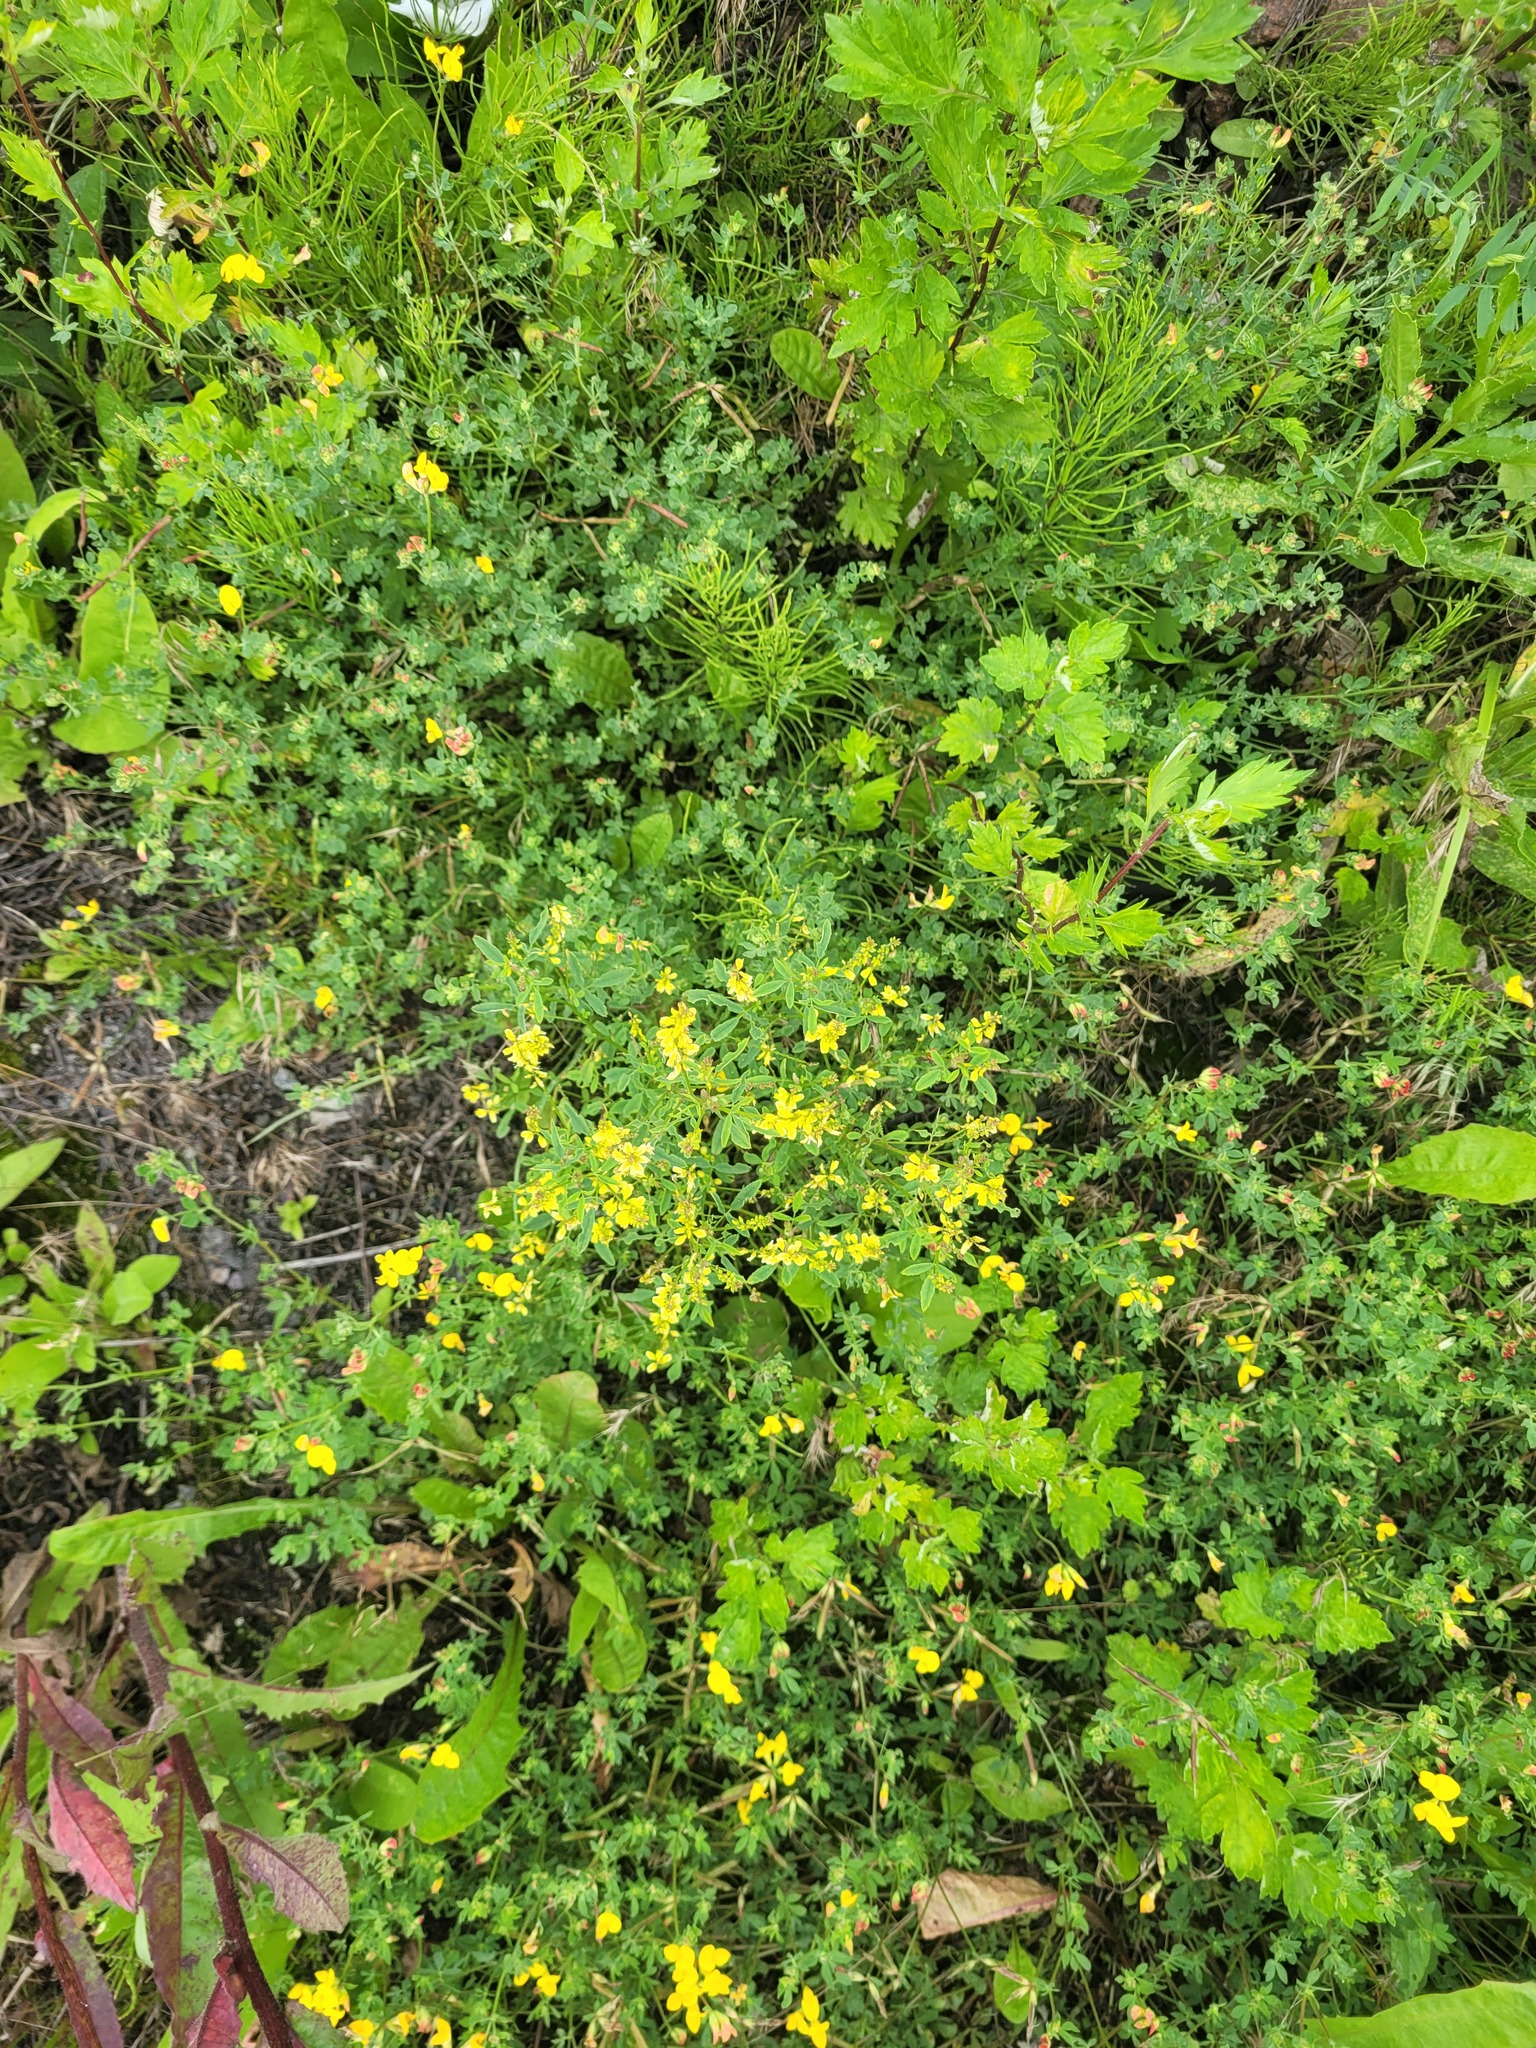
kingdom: Plantae
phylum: Tracheophyta
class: Magnoliopsida
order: Fabales
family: Fabaceae
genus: Melilotus
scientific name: Melilotus officinalis
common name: Sweetclover
